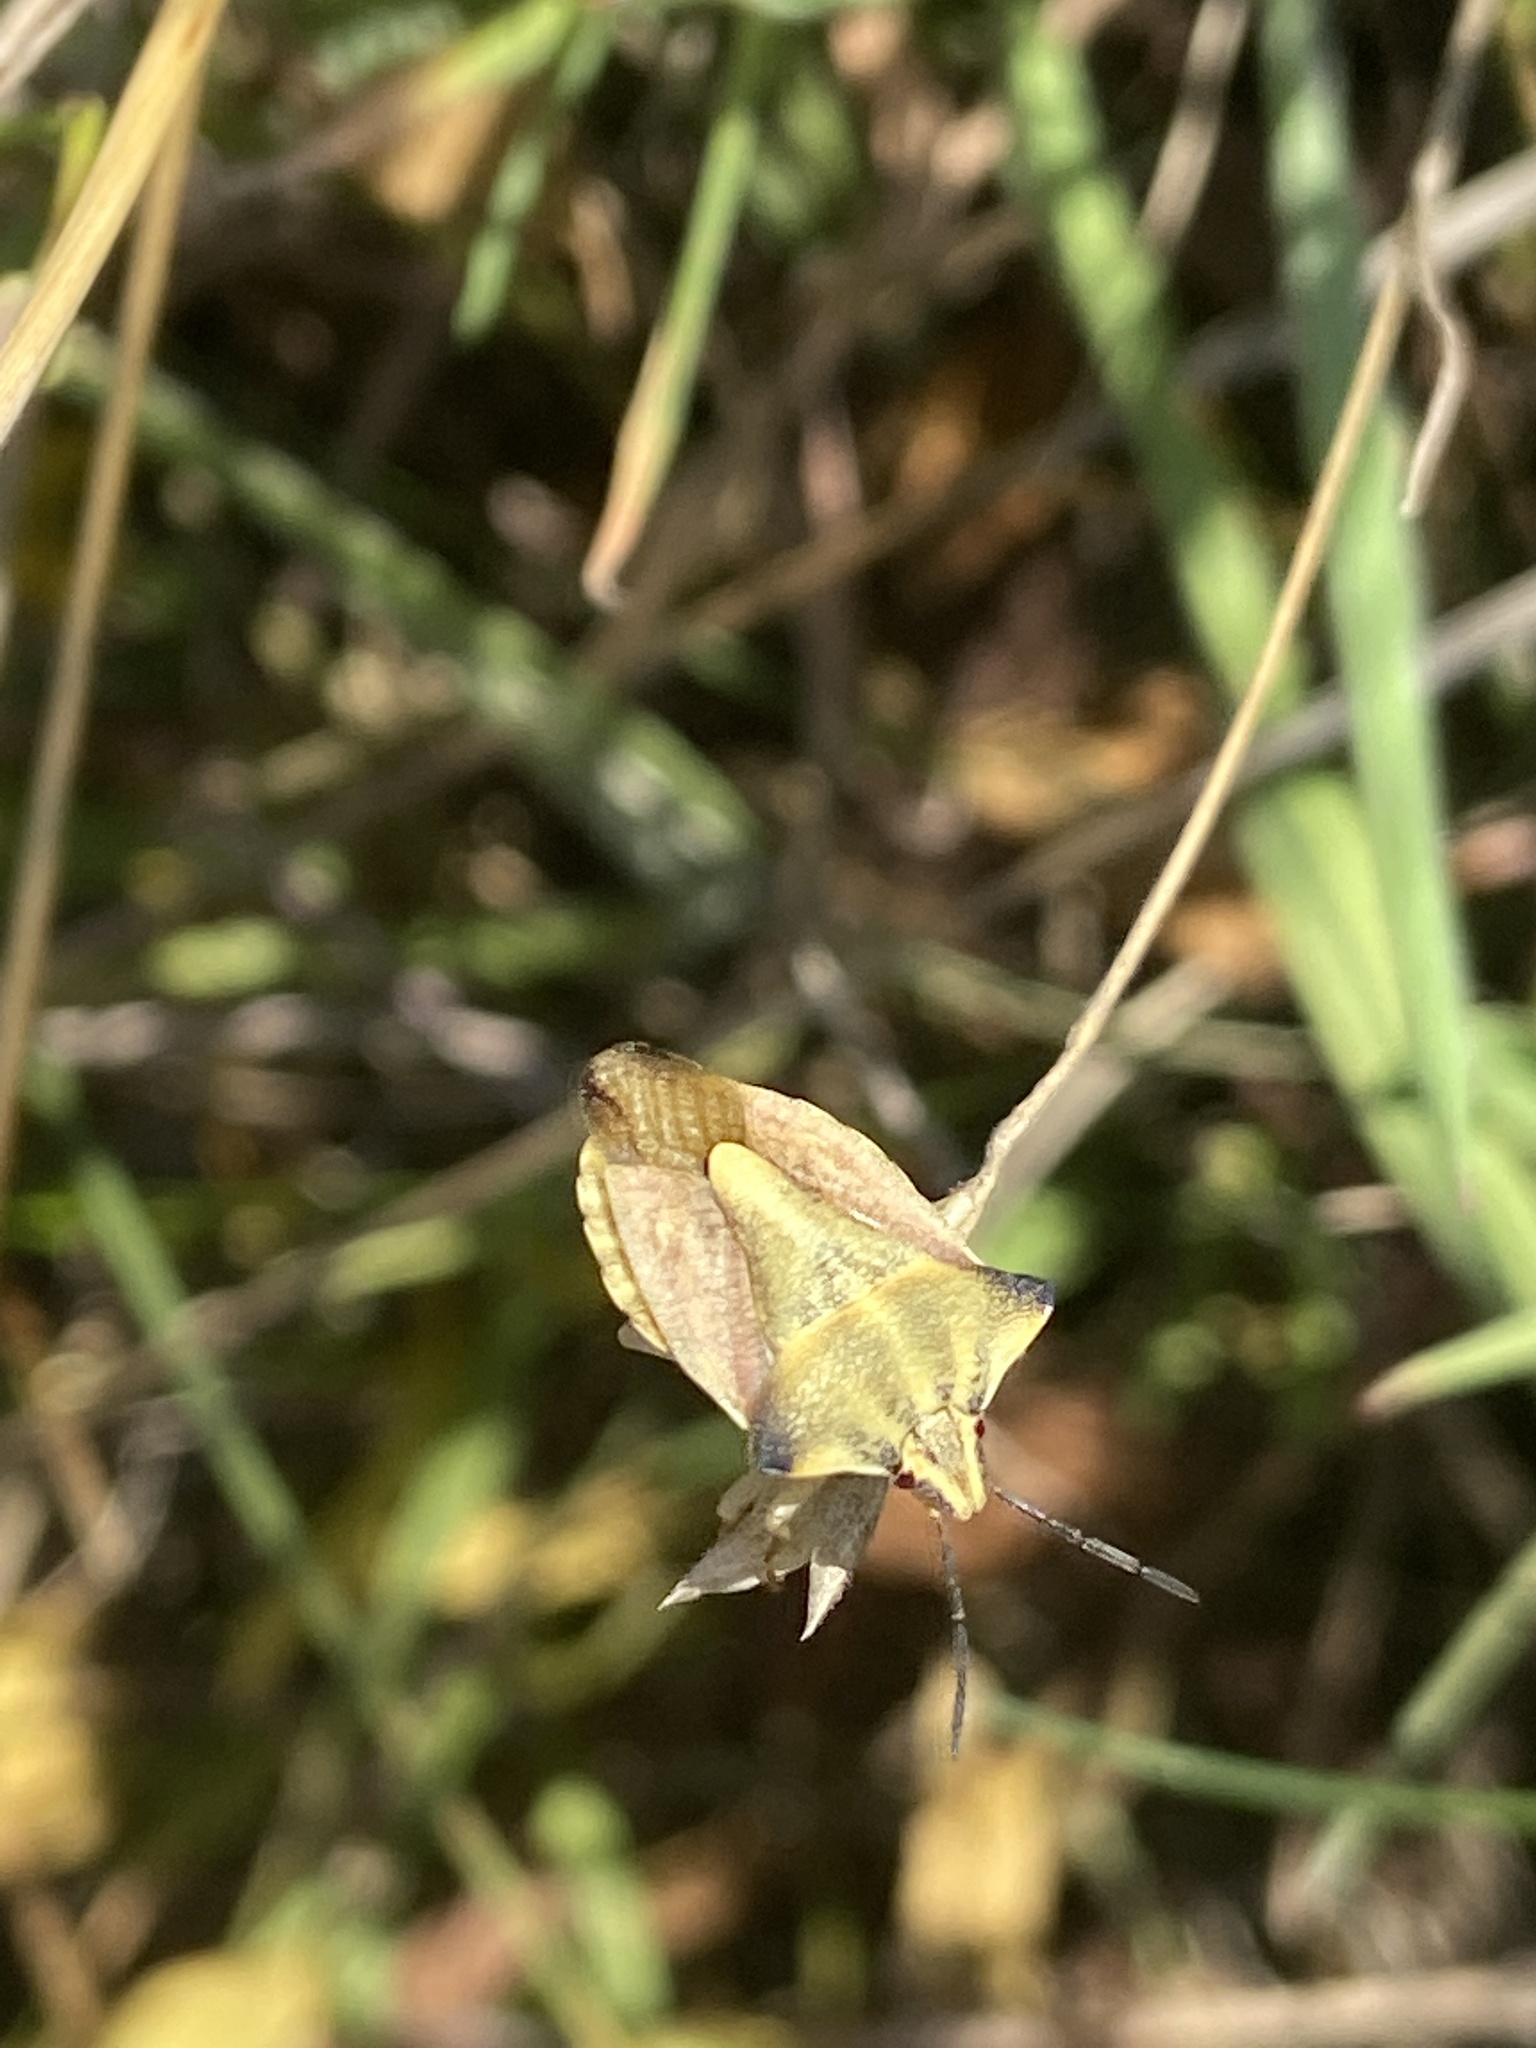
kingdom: Animalia
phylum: Arthropoda
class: Insecta
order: Hemiptera
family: Pentatomidae
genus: Carpocoris
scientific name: Carpocoris fuscispinus
